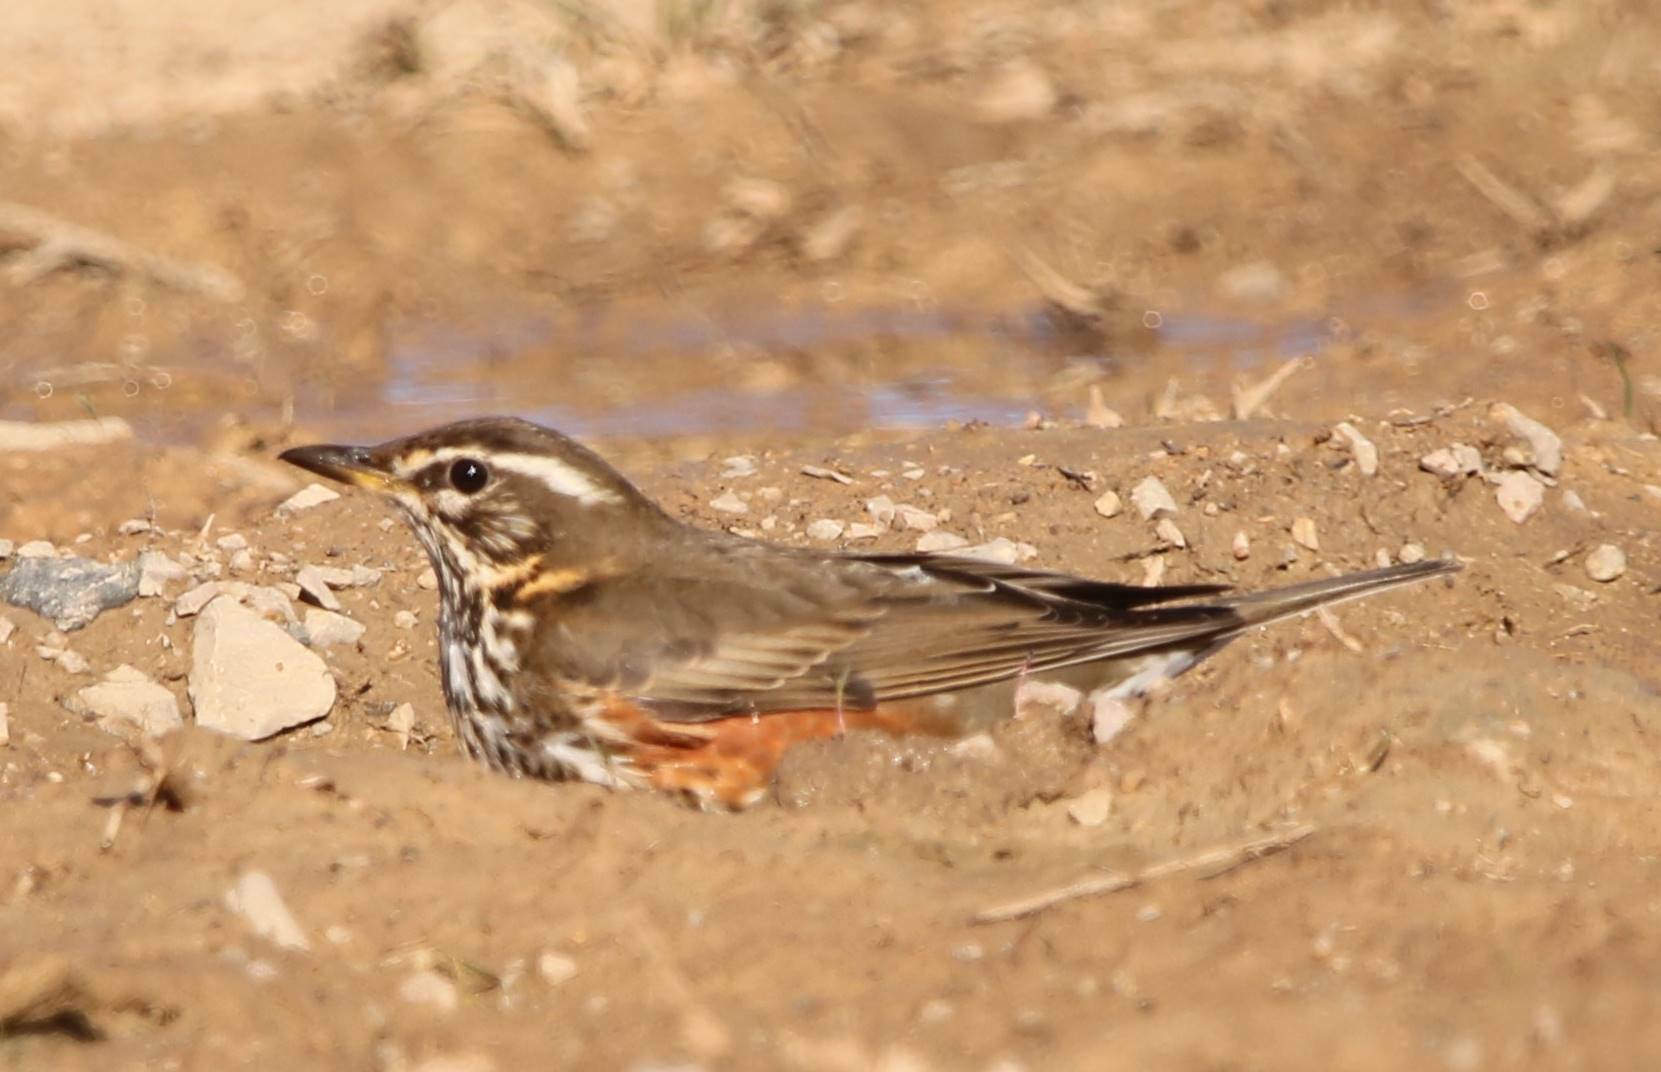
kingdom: Animalia
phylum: Chordata
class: Aves
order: Passeriformes
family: Turdidae
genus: Turdus
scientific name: Turdus iliacus
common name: Redwing
